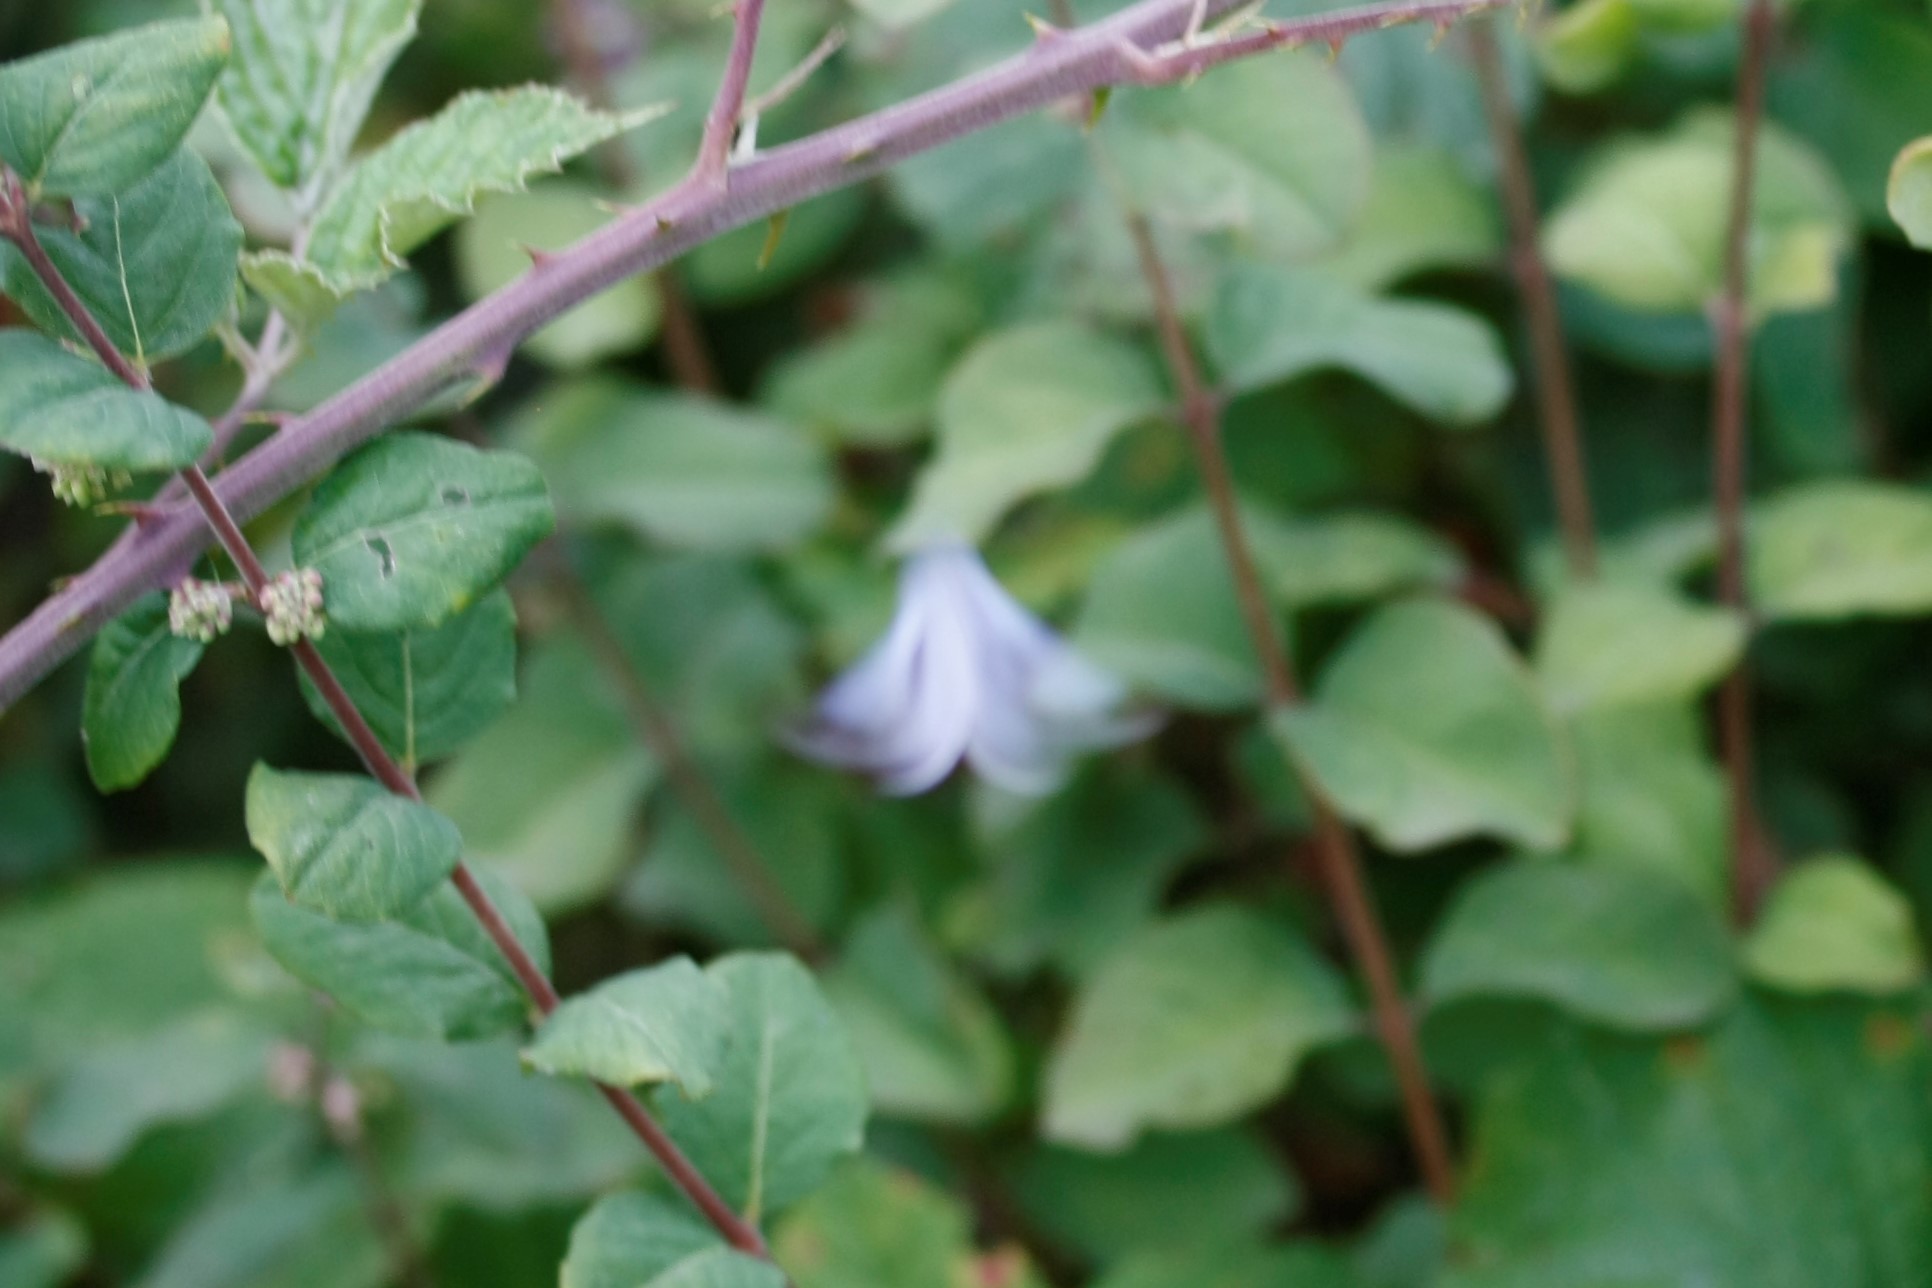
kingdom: Animalia
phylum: Arthropoda
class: Insecta
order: Lepidoptera
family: Lycaenidae
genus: Celastrina
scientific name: Celastrina argiolus
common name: Holly blue
